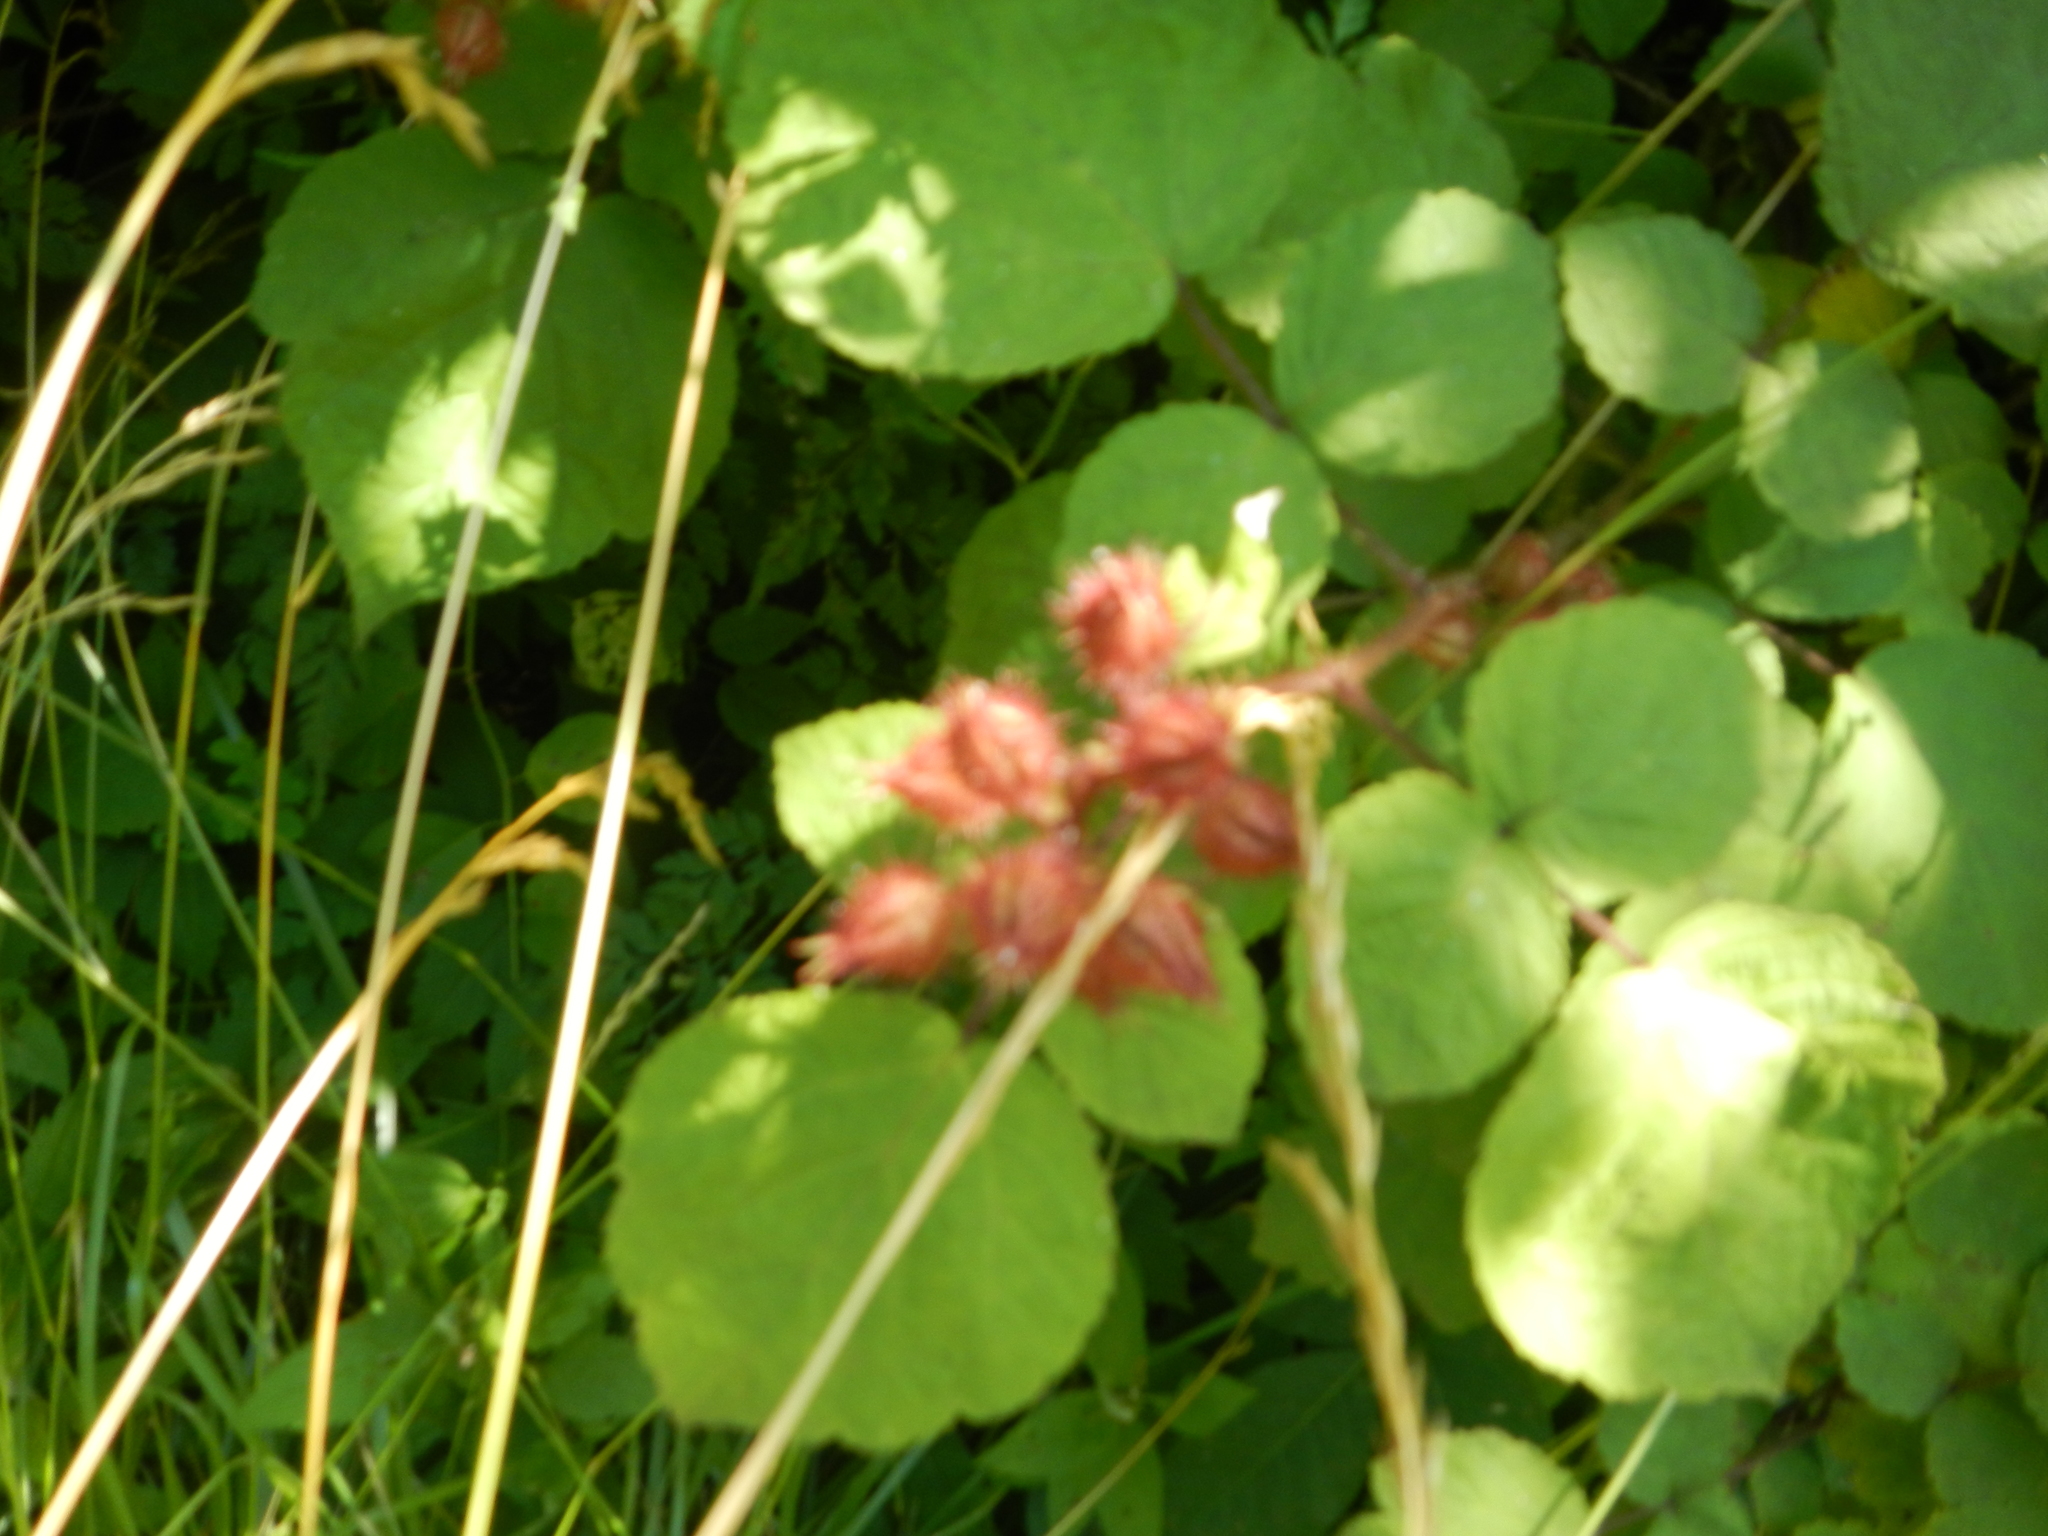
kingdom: Plantae
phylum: Tracheophyta
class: Magnoliopsida
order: Rosales
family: Rosaceae
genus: Rubus
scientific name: Rubus phoenicolasius
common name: Japanese wineberry
